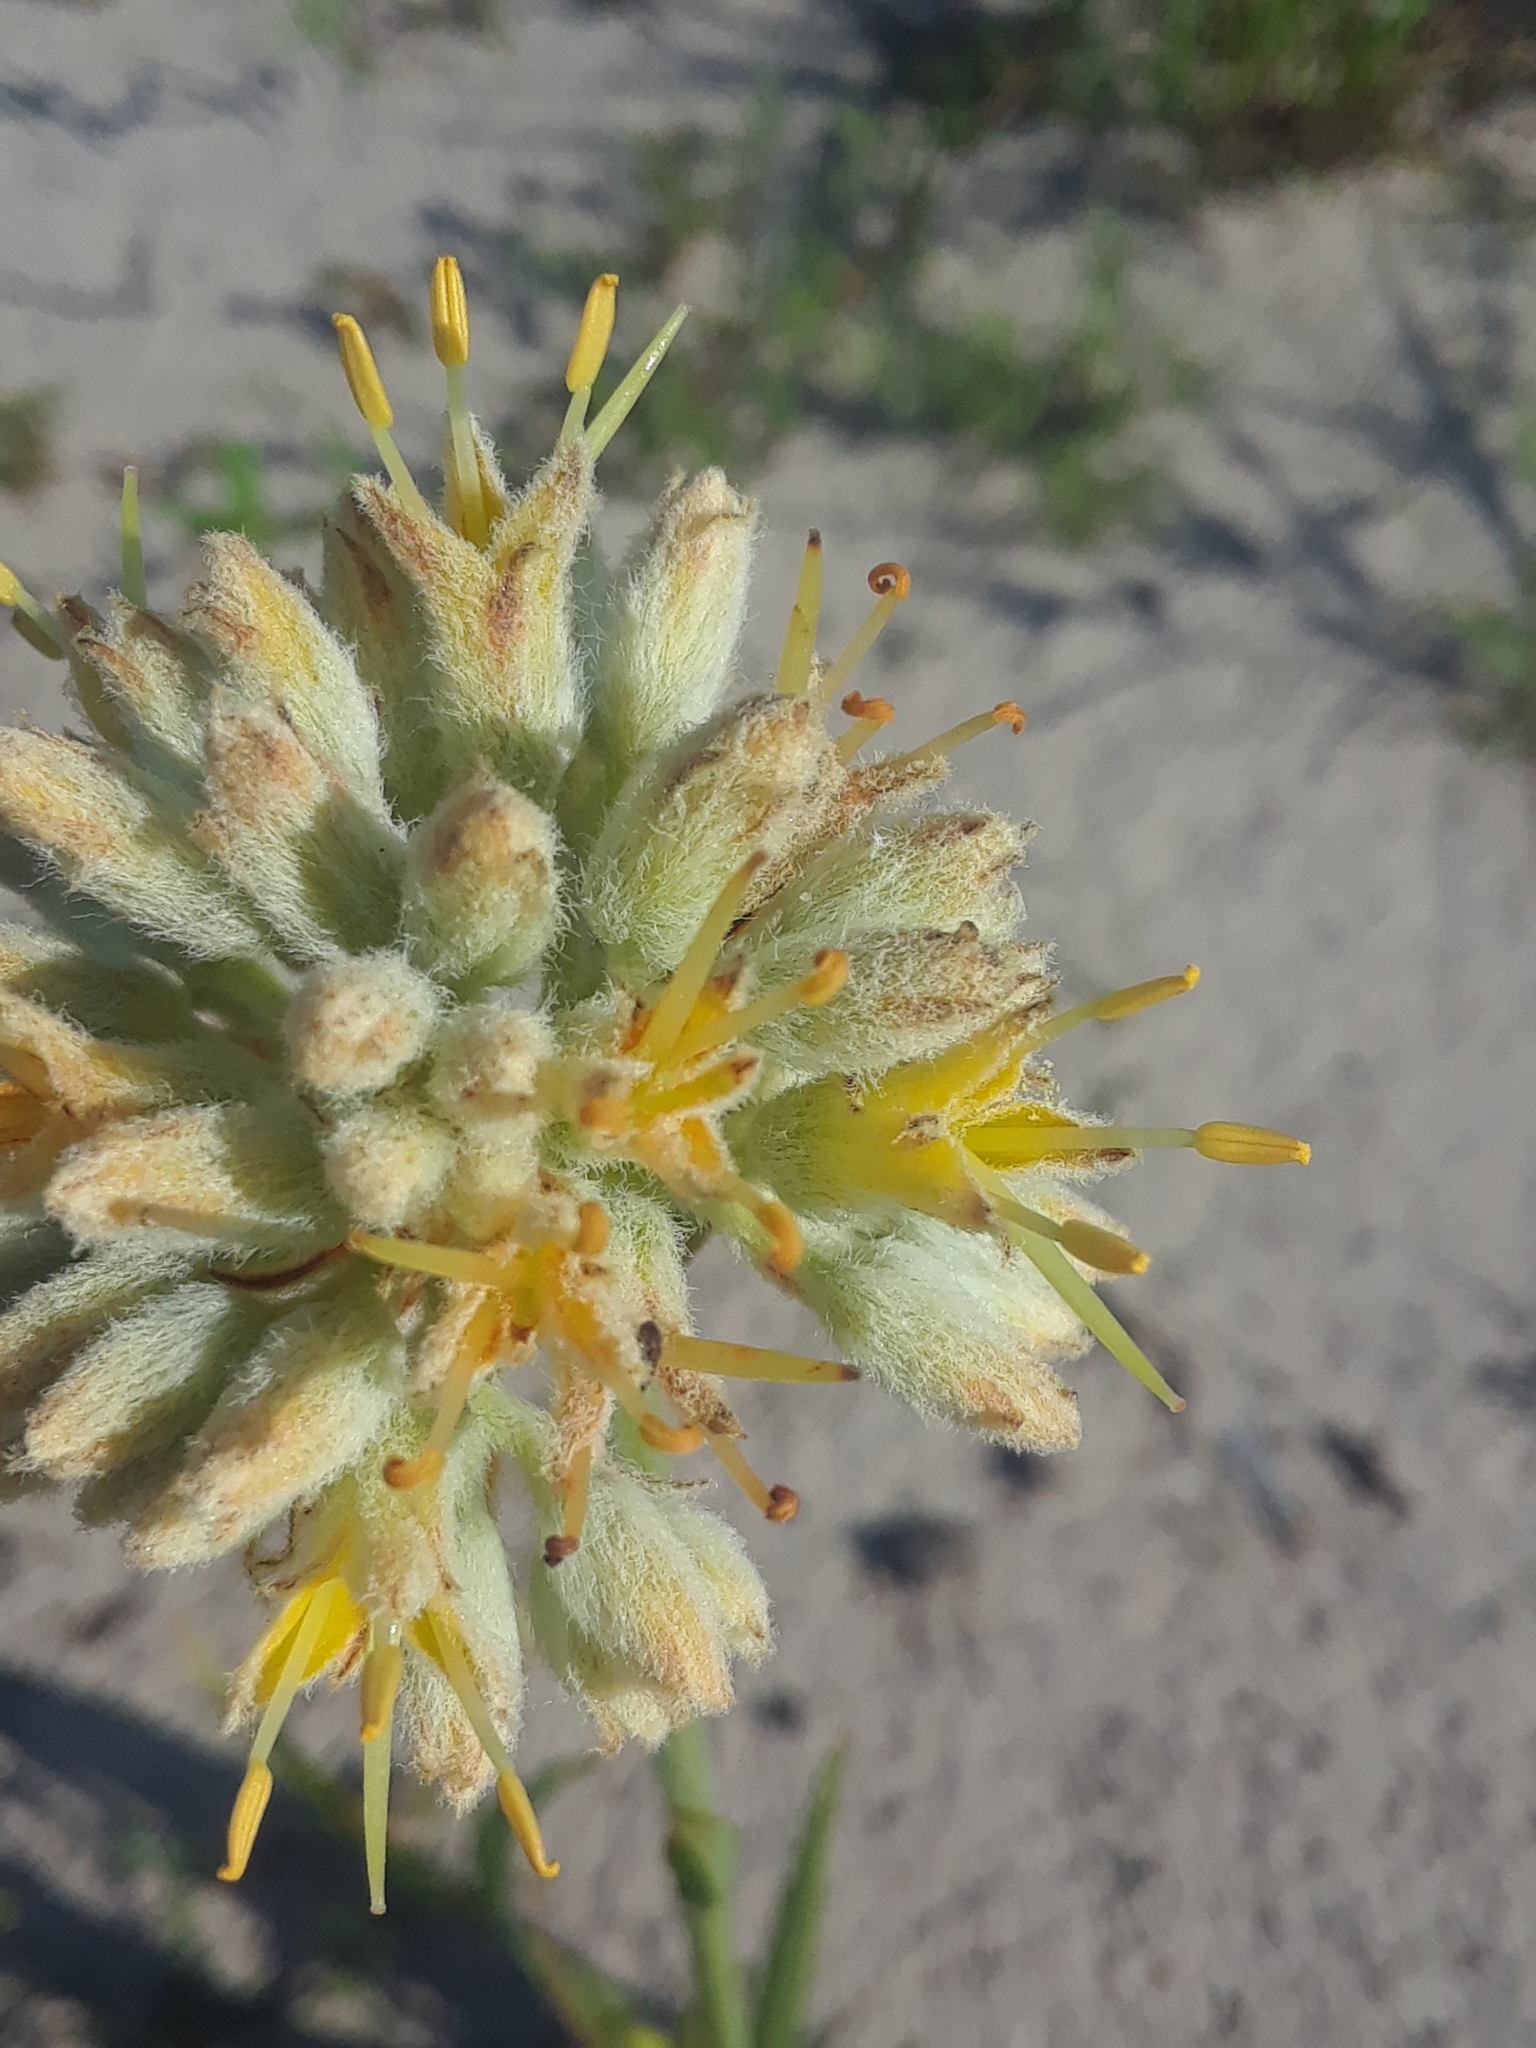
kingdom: Plantae
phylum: Tracheophyta
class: Liliopsida
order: Commelinales
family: Haemodoraceae
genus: Lachnanthes
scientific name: Lachnanthes caroliana
